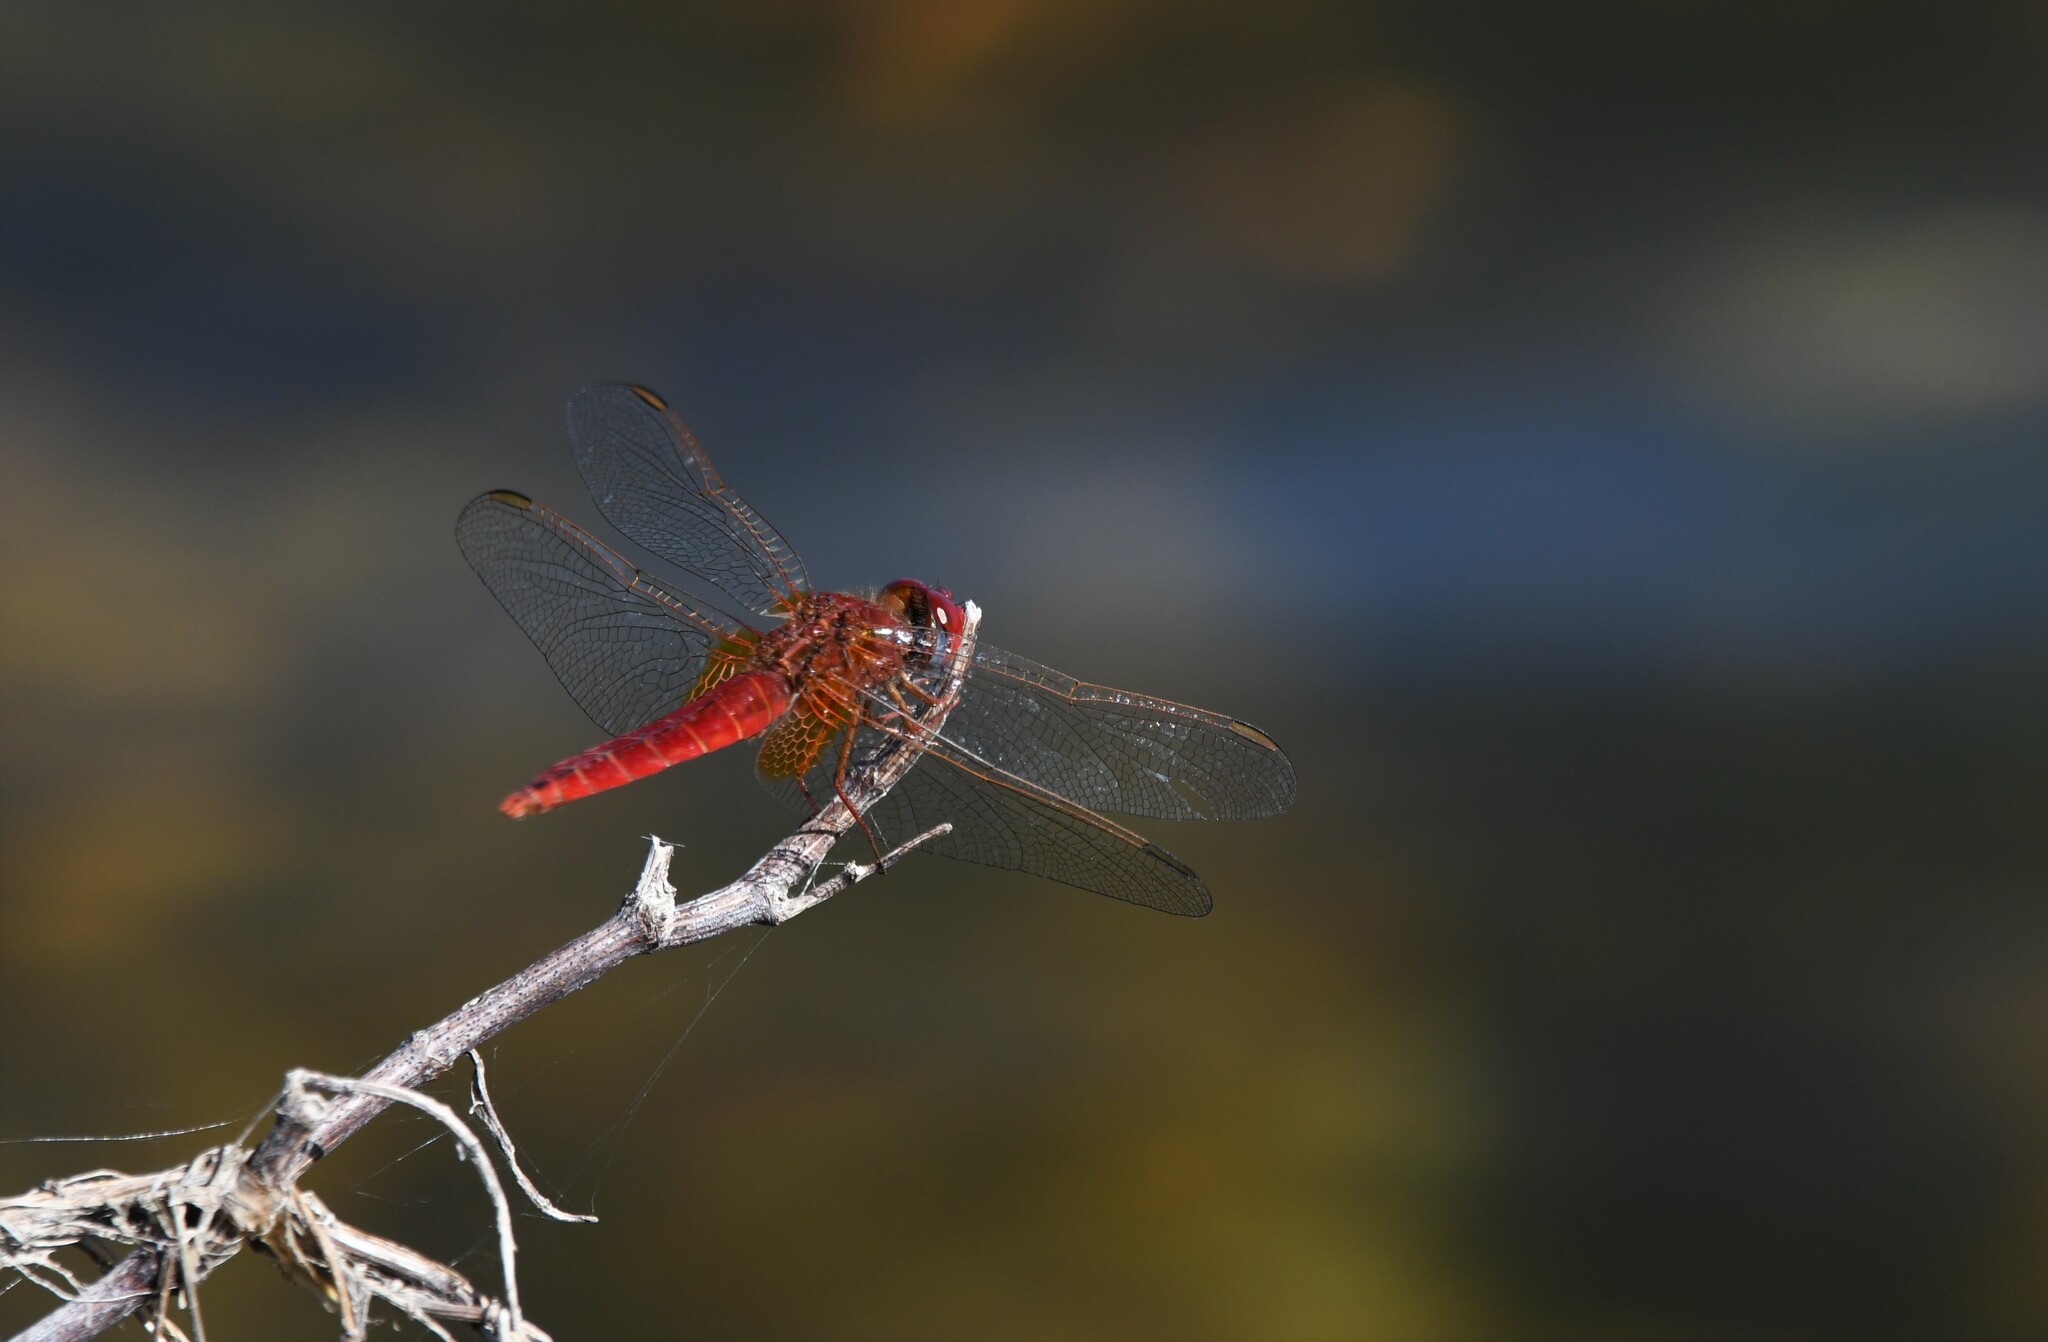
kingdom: Animalia
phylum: Arthropoda
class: Insecta
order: Odonata
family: Libellulidae
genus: Crocothemis
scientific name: Crocothemis erythraea
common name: Scarlet dragonfly
